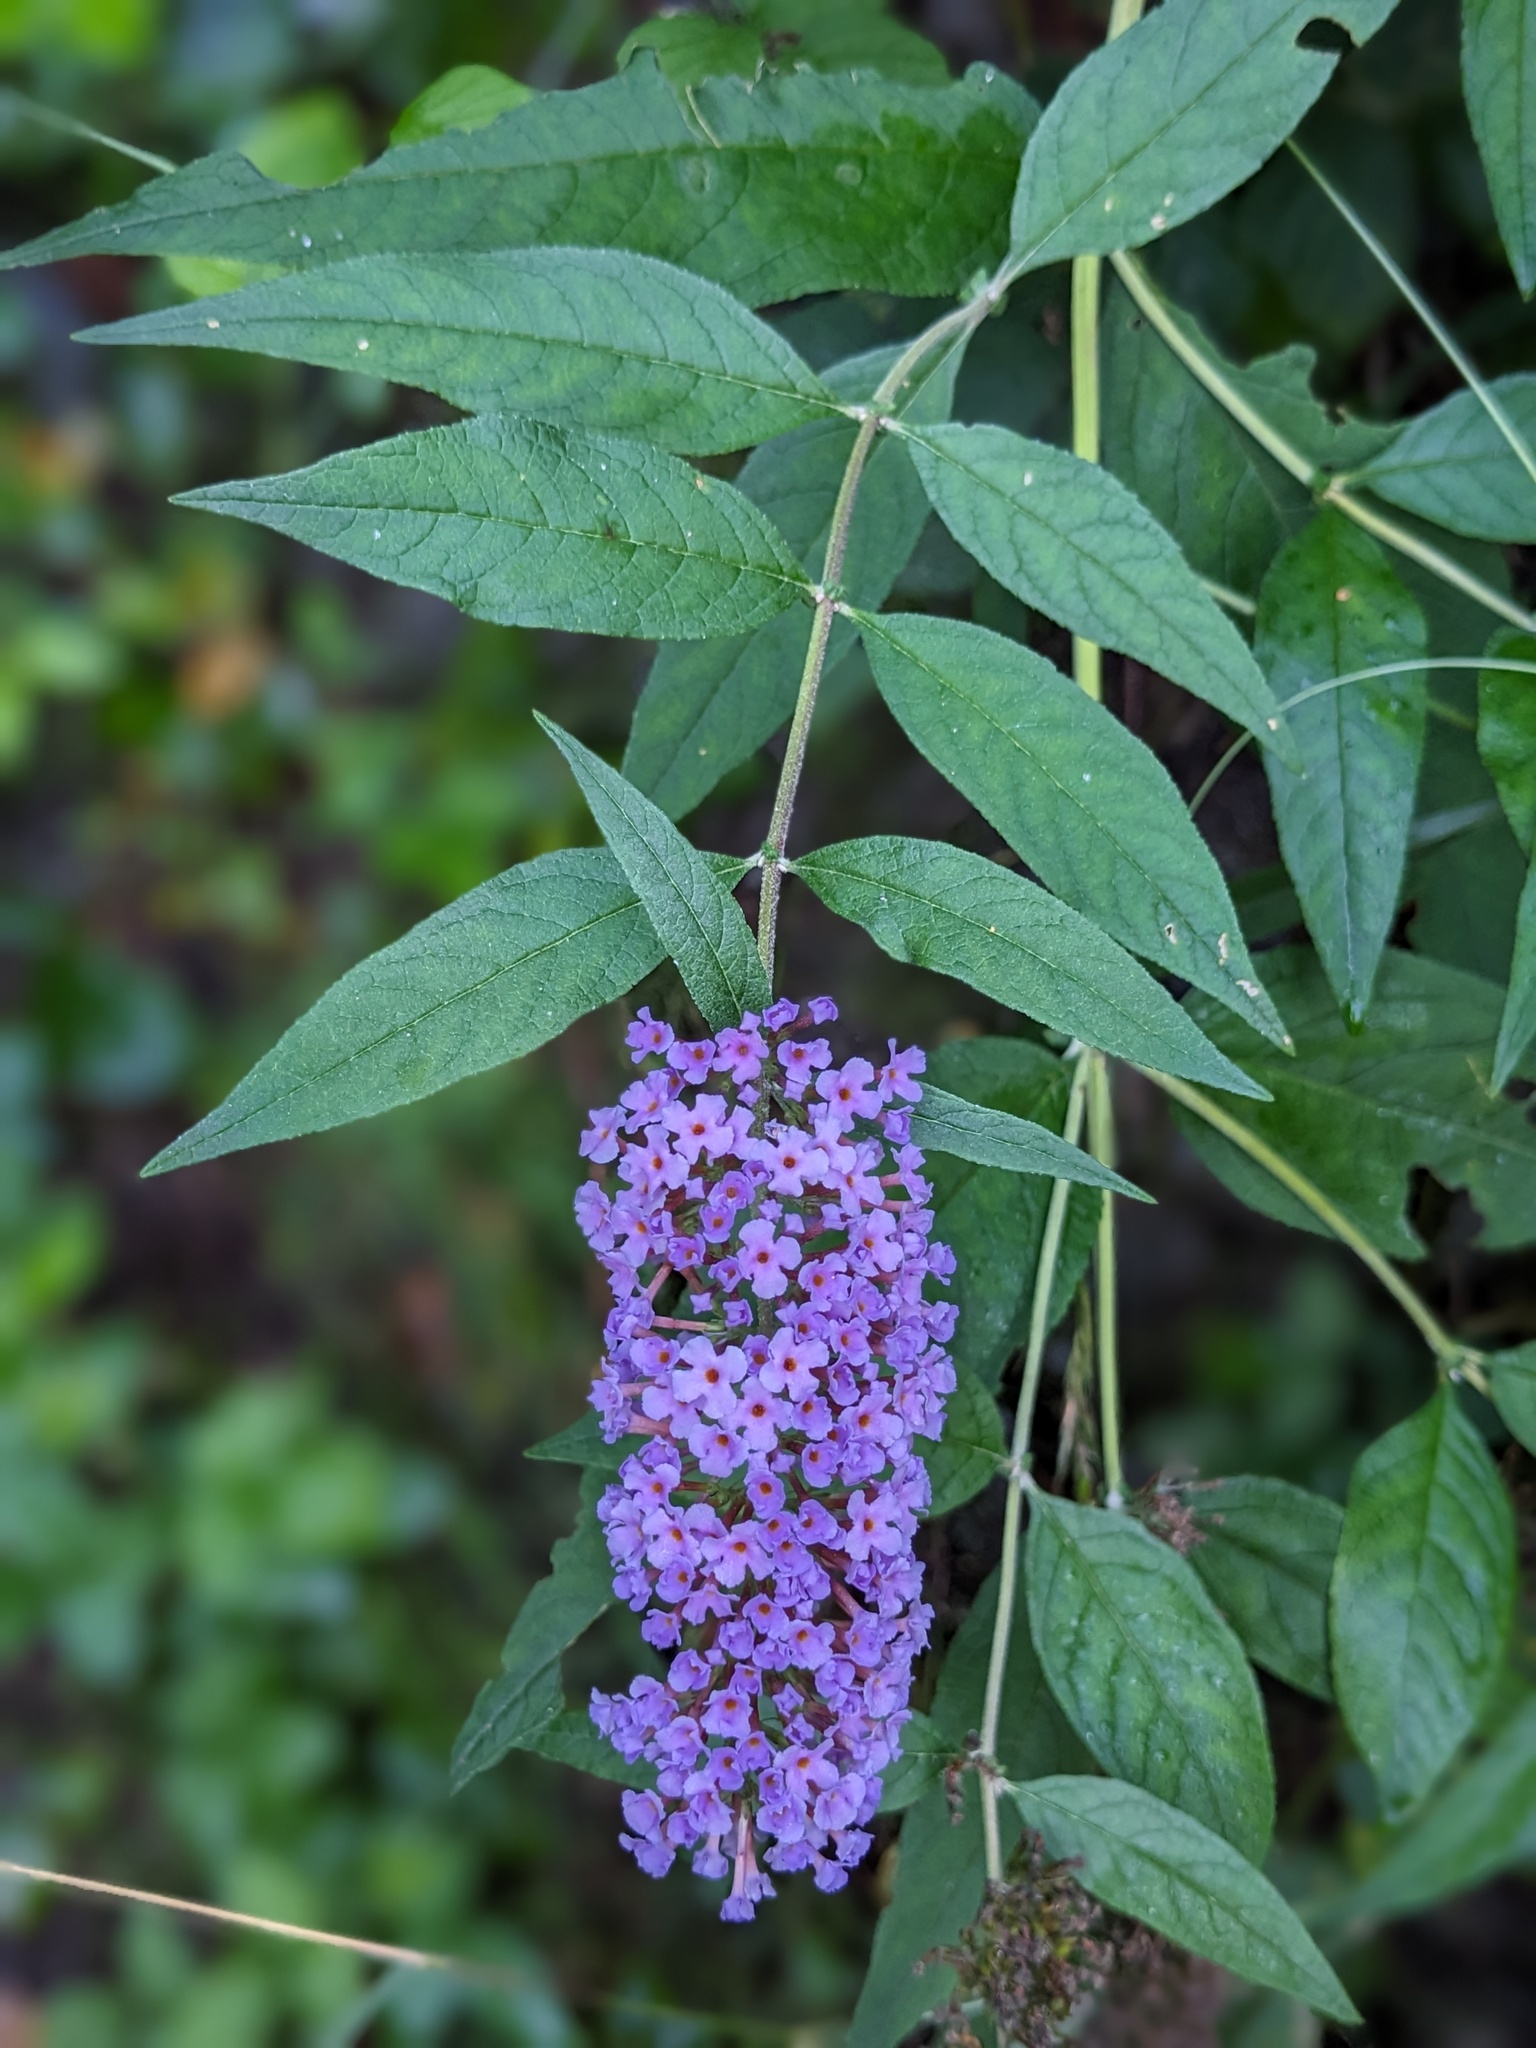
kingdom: Plantae
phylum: Tracheophyta
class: Magnoliopsida
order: Lamiales
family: Scrophulariaceae
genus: Buddleja
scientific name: Buddleja davidii
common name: Butterfly-bush
